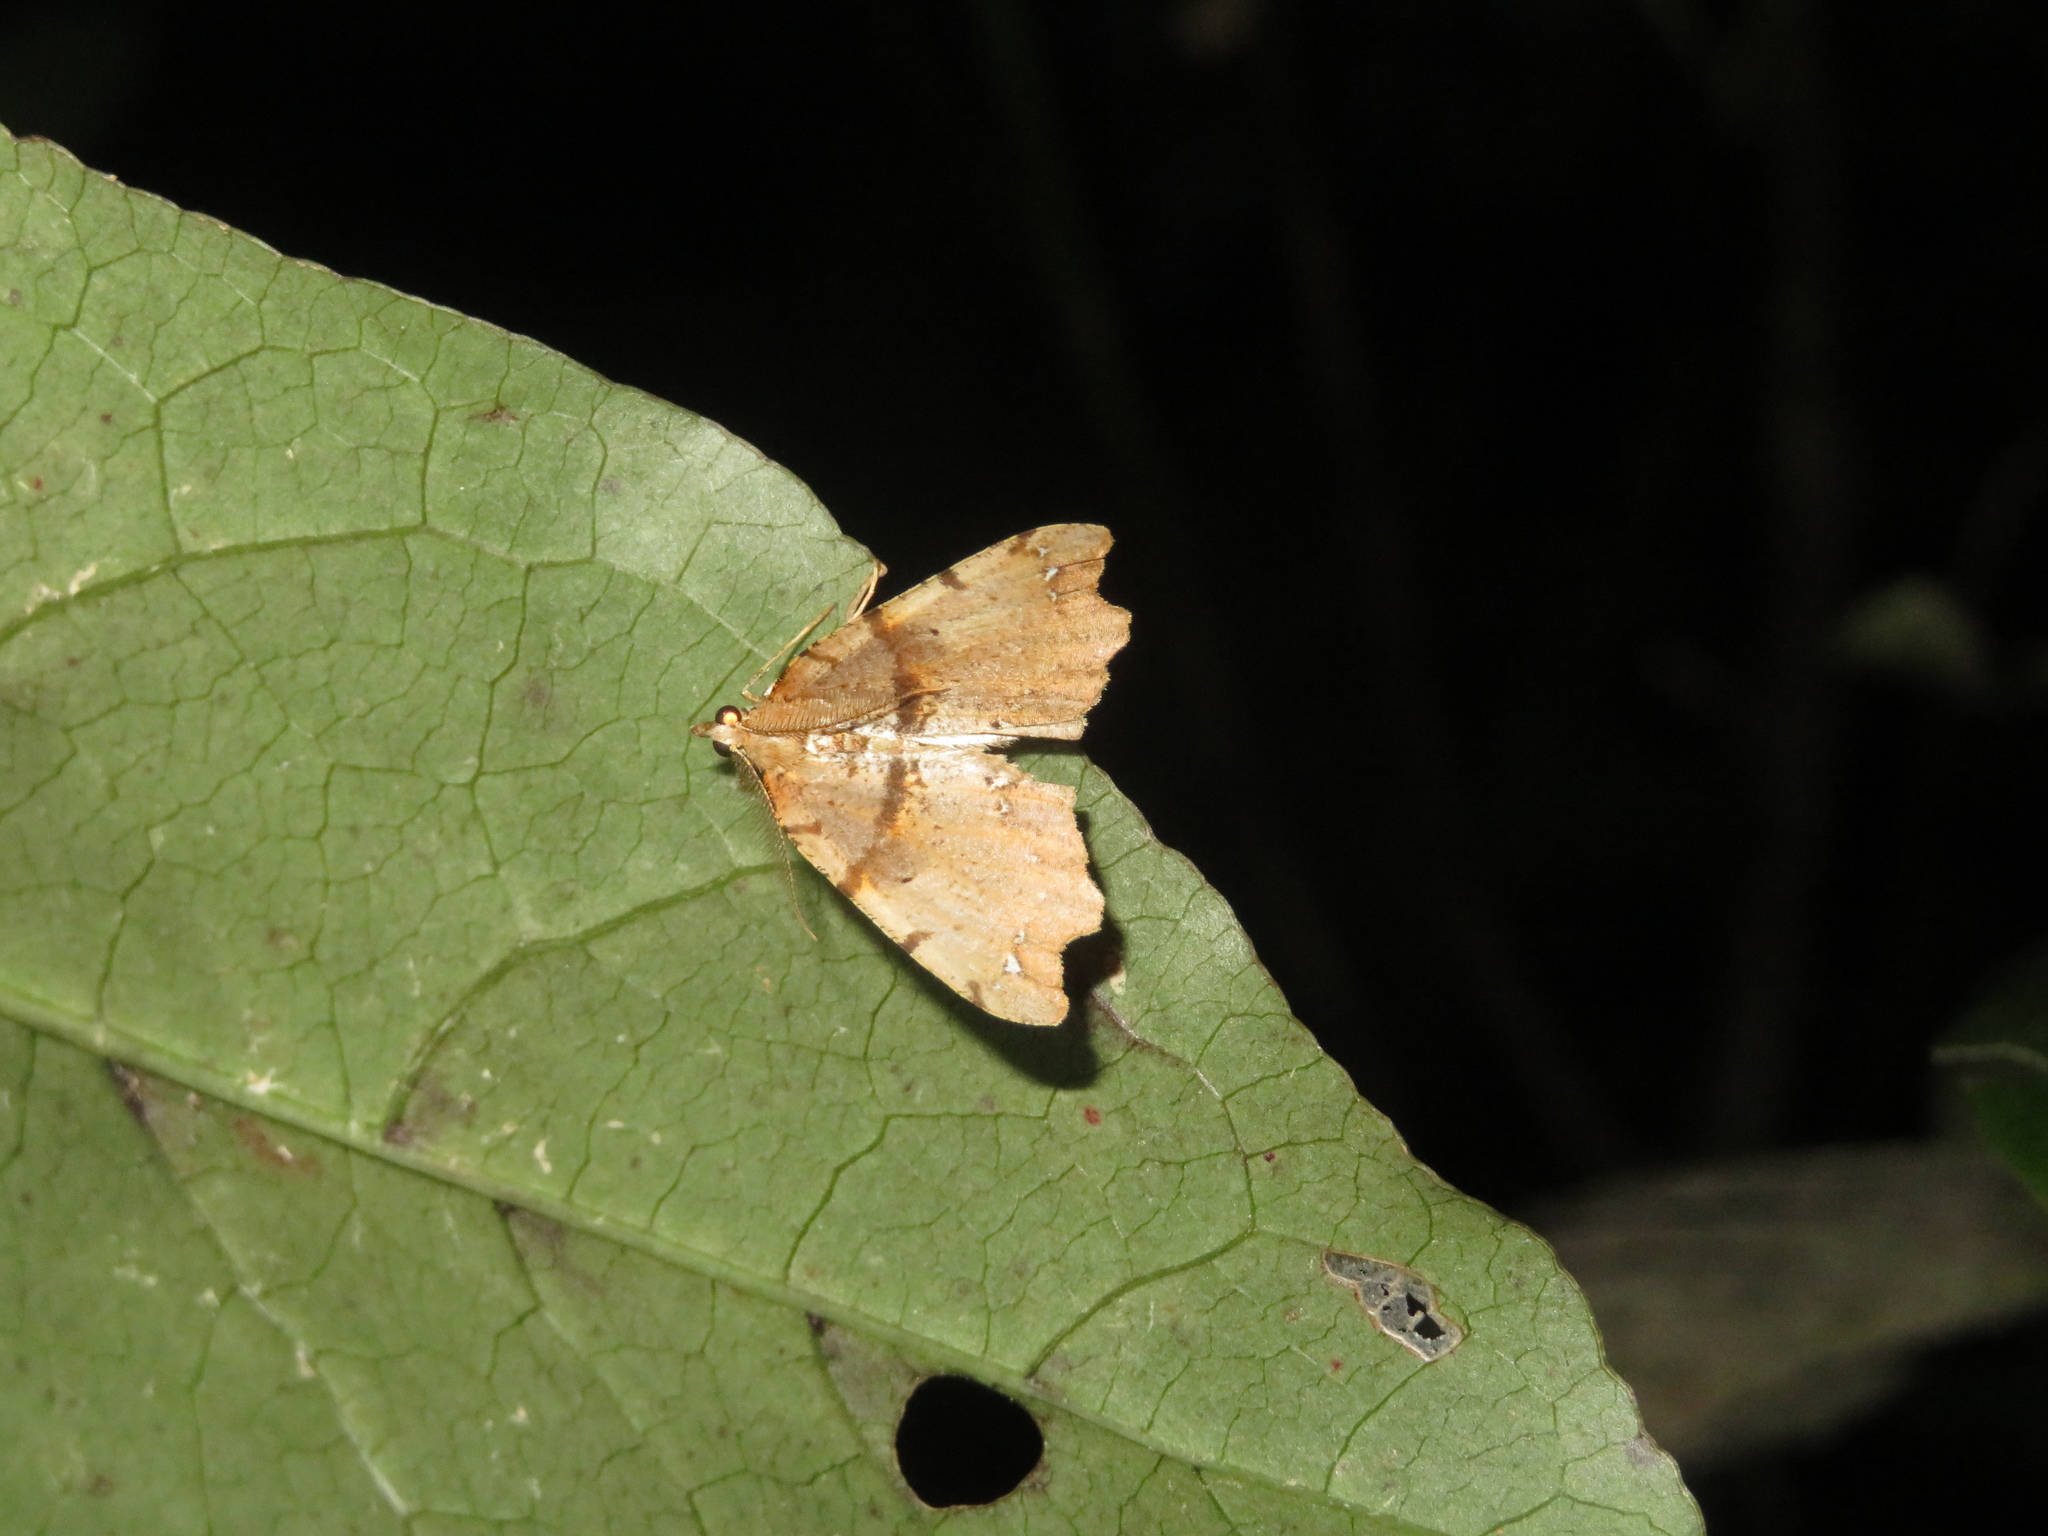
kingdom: Animalia
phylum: Arthropoda
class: Insecta
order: Lepidoptera
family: Geometridae
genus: Chalastra
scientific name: Chalastra pellurgata
